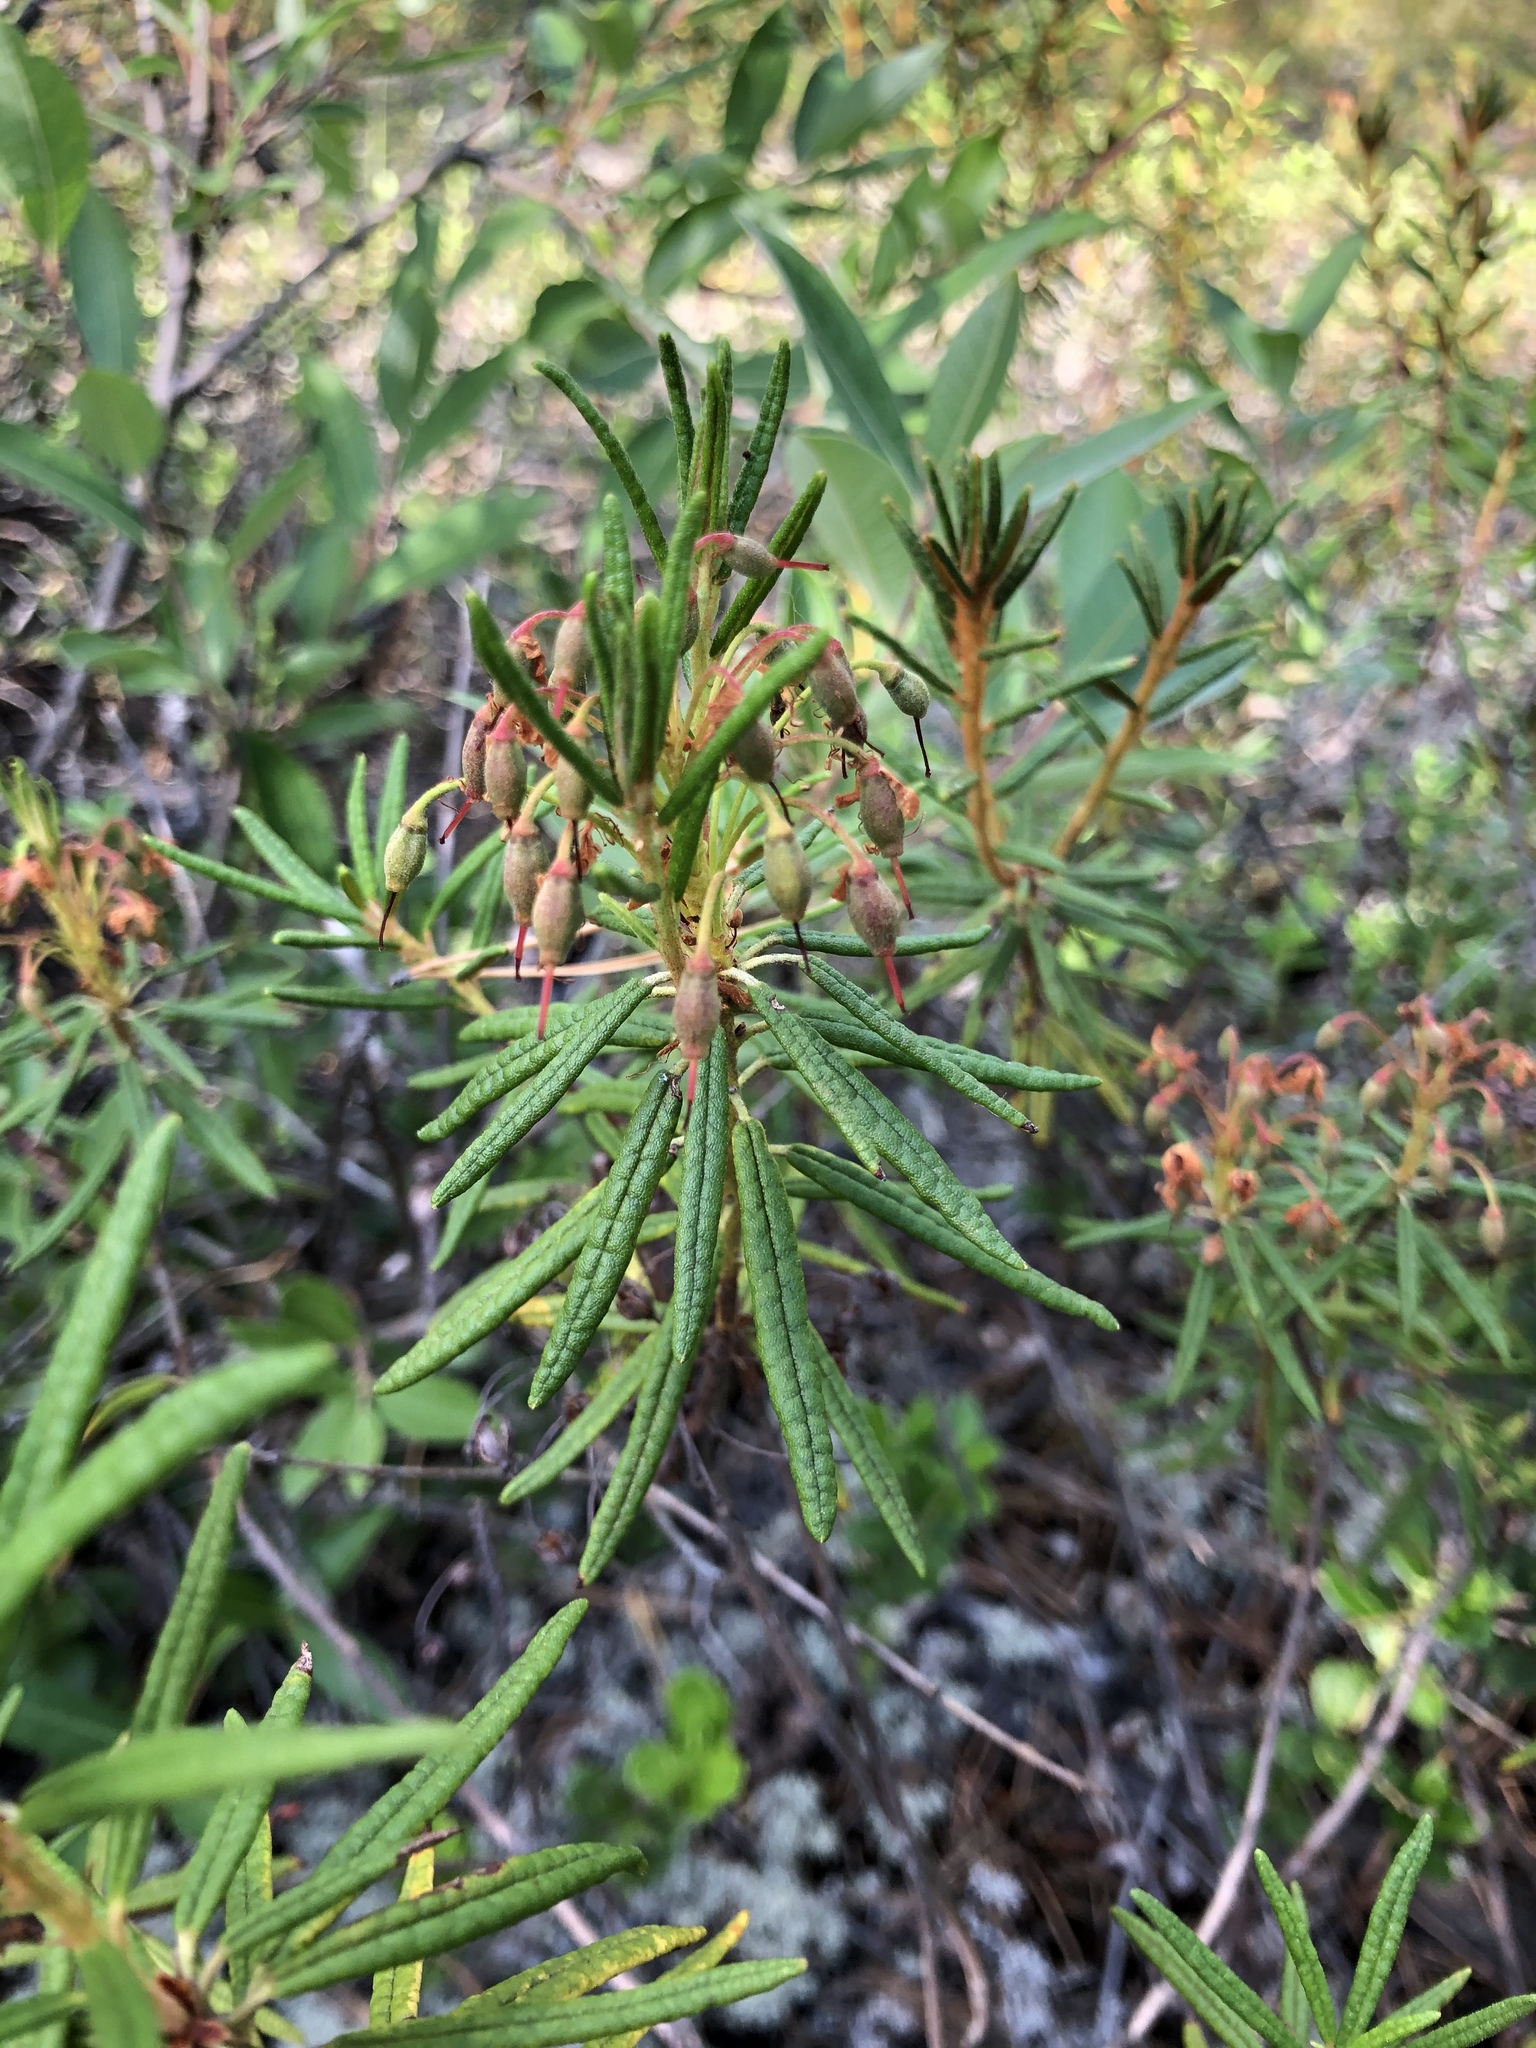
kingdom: Plantae
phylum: Tracheophyta
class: Magnoliopsida
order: Ericales
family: Ericaceae
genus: Rhododendron
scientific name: Rhododendron tomentosum
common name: Marsh labrador tea
